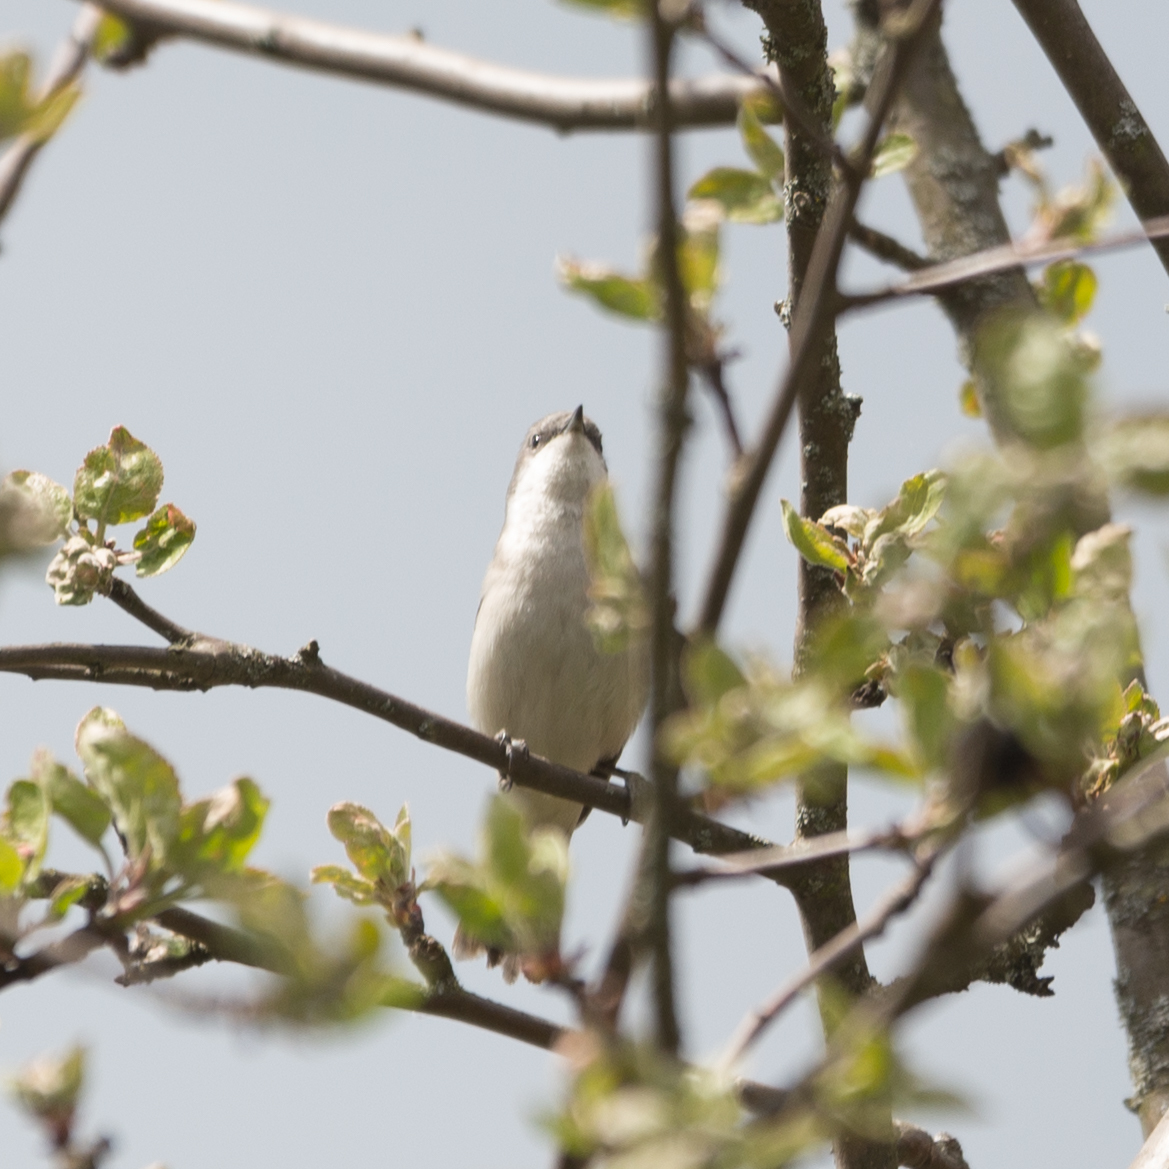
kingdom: Animalia
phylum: Chordata
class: Aves
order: Passeriformes
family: Sylviidae
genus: Sylvia
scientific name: Sylvia curruca
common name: Lesser whitethroat
